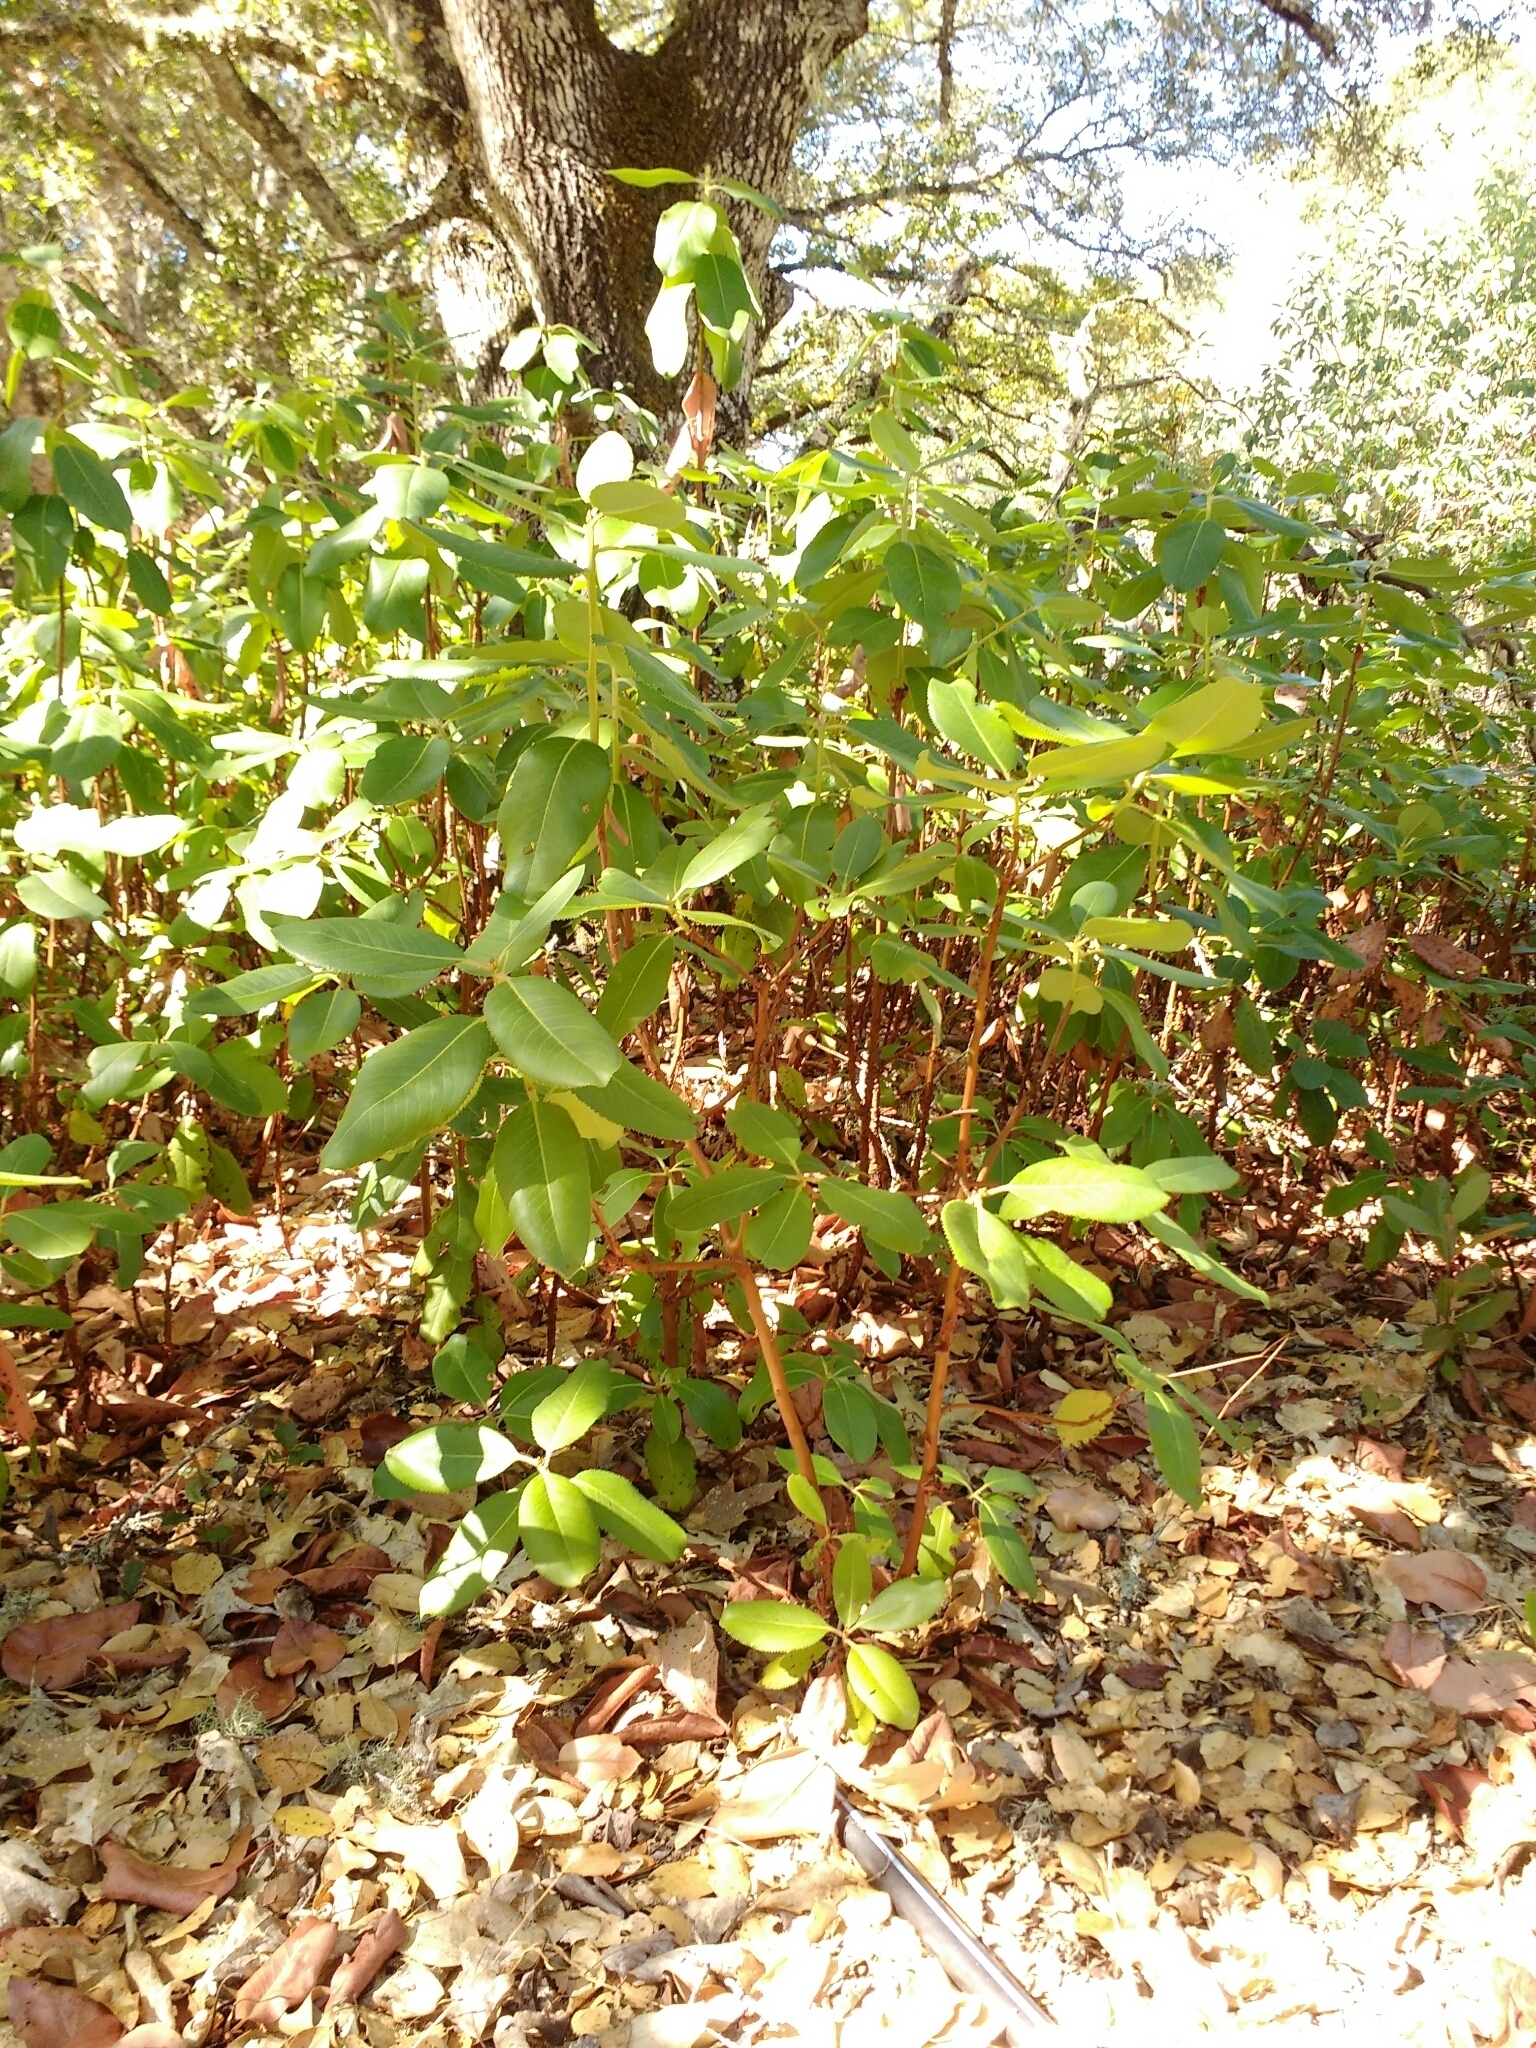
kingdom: Plantae
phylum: Tracheophyta
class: Magnoliopsida
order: Ericales
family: Ericaceae
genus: Arbutus
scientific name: Arbutus menziesii
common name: Pacific madrone
